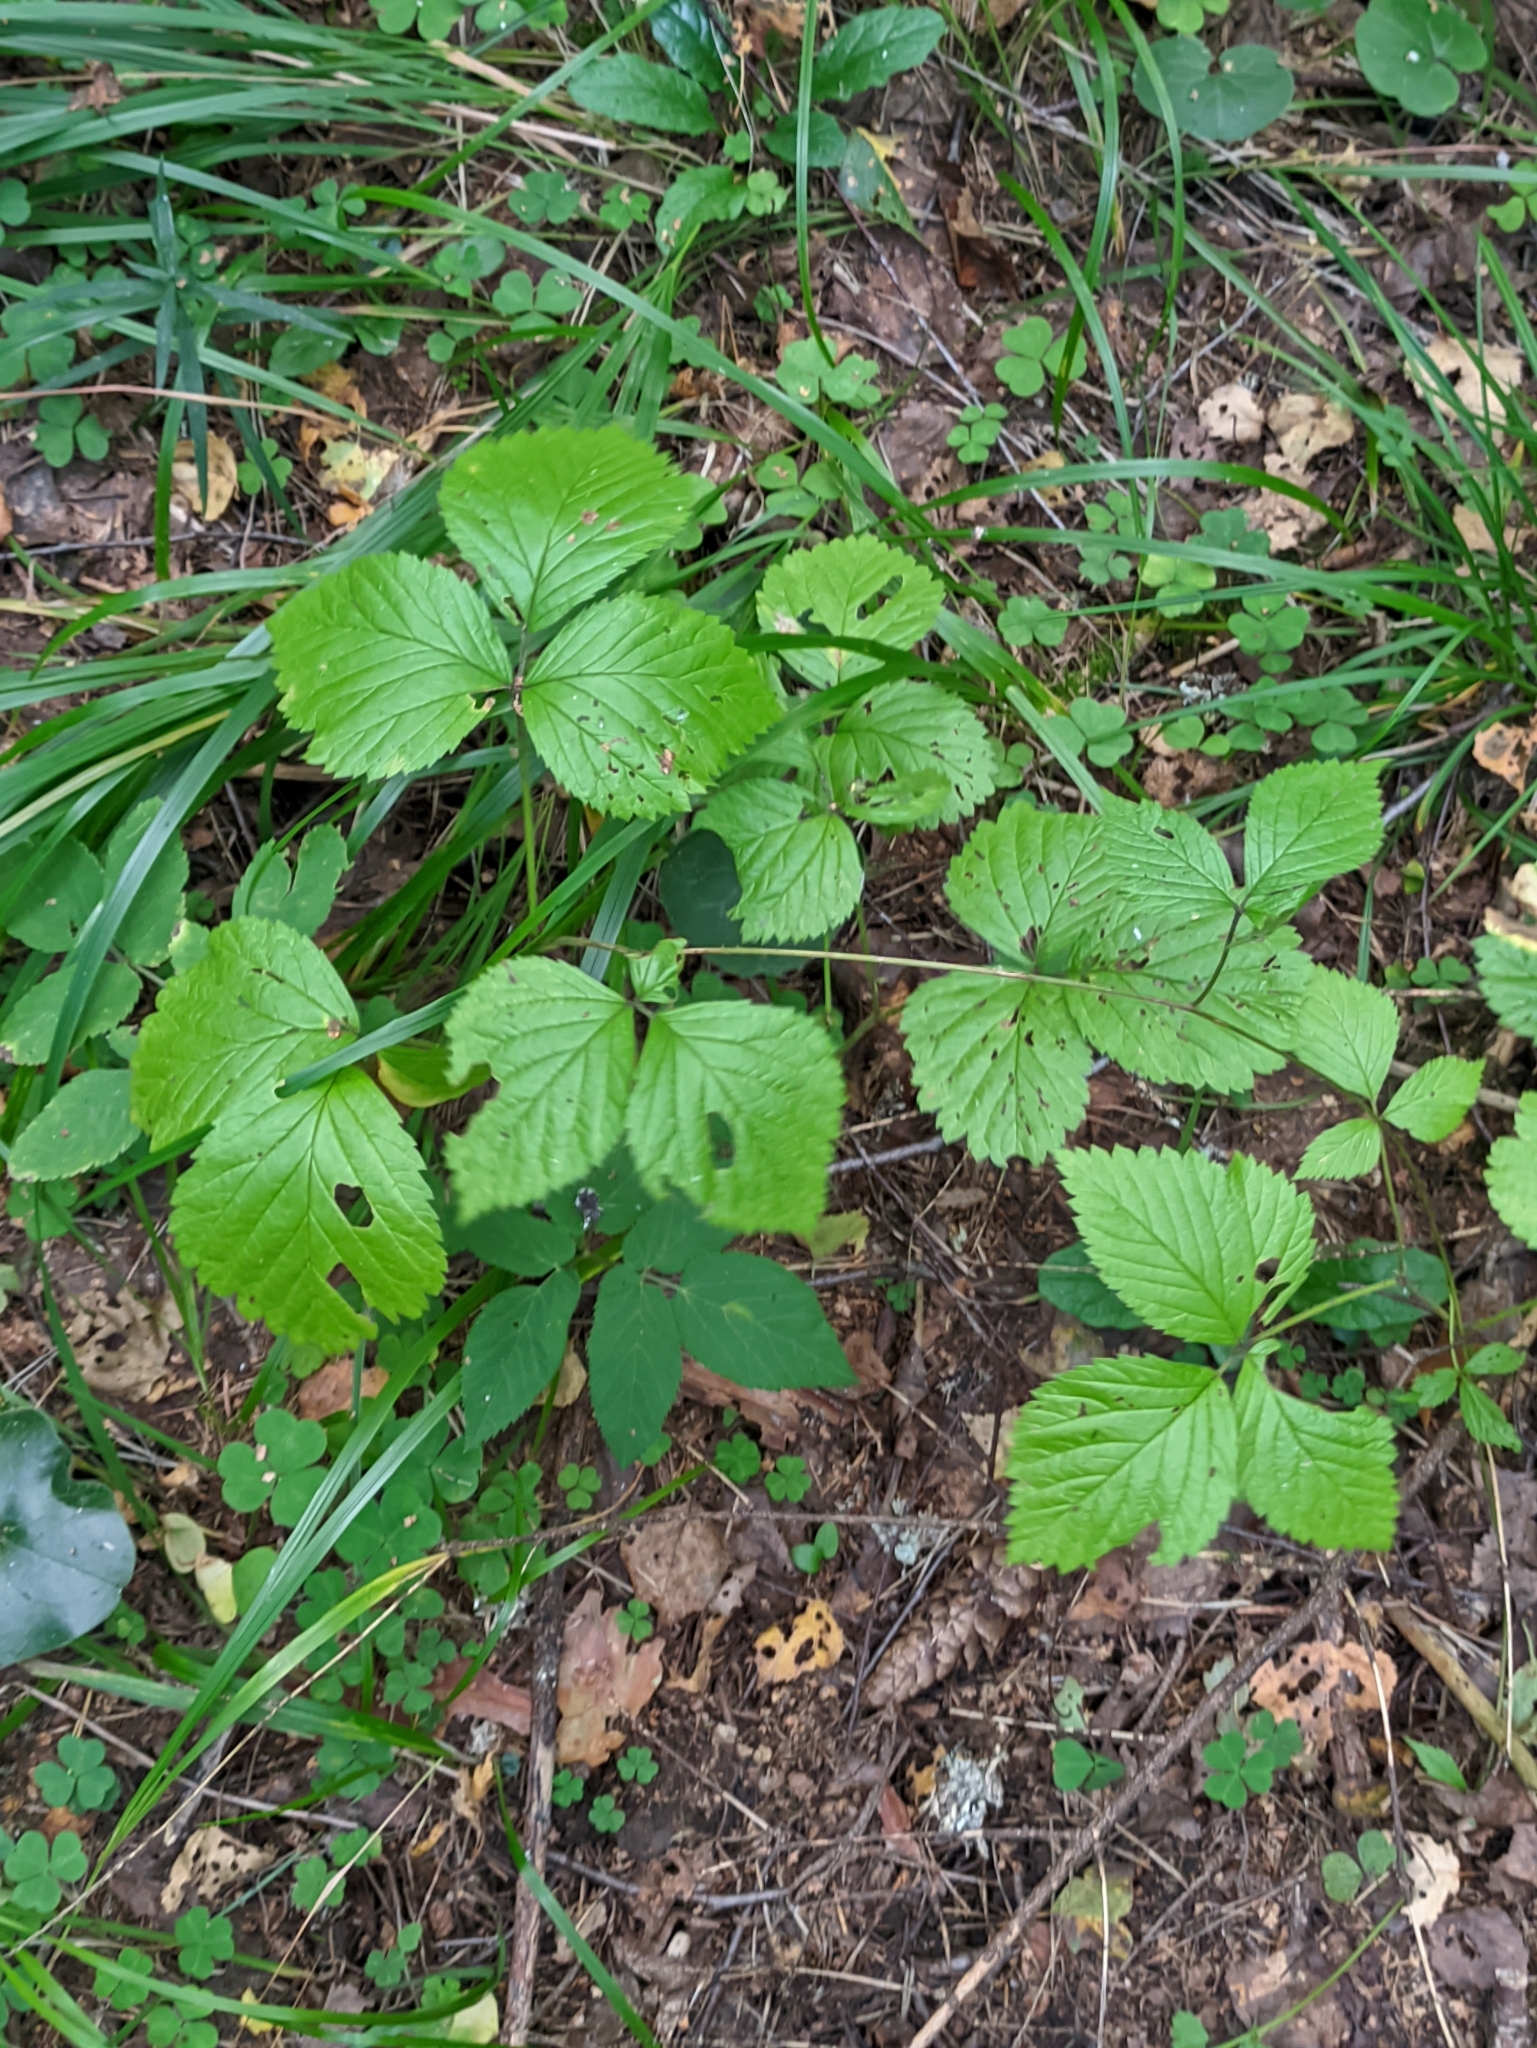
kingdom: Plantae
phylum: Tracheophyta
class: Magnoliopsida
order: Rosales
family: Rosaceae
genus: Rubus
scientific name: Rubus saxatilis
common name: Stone bramble
